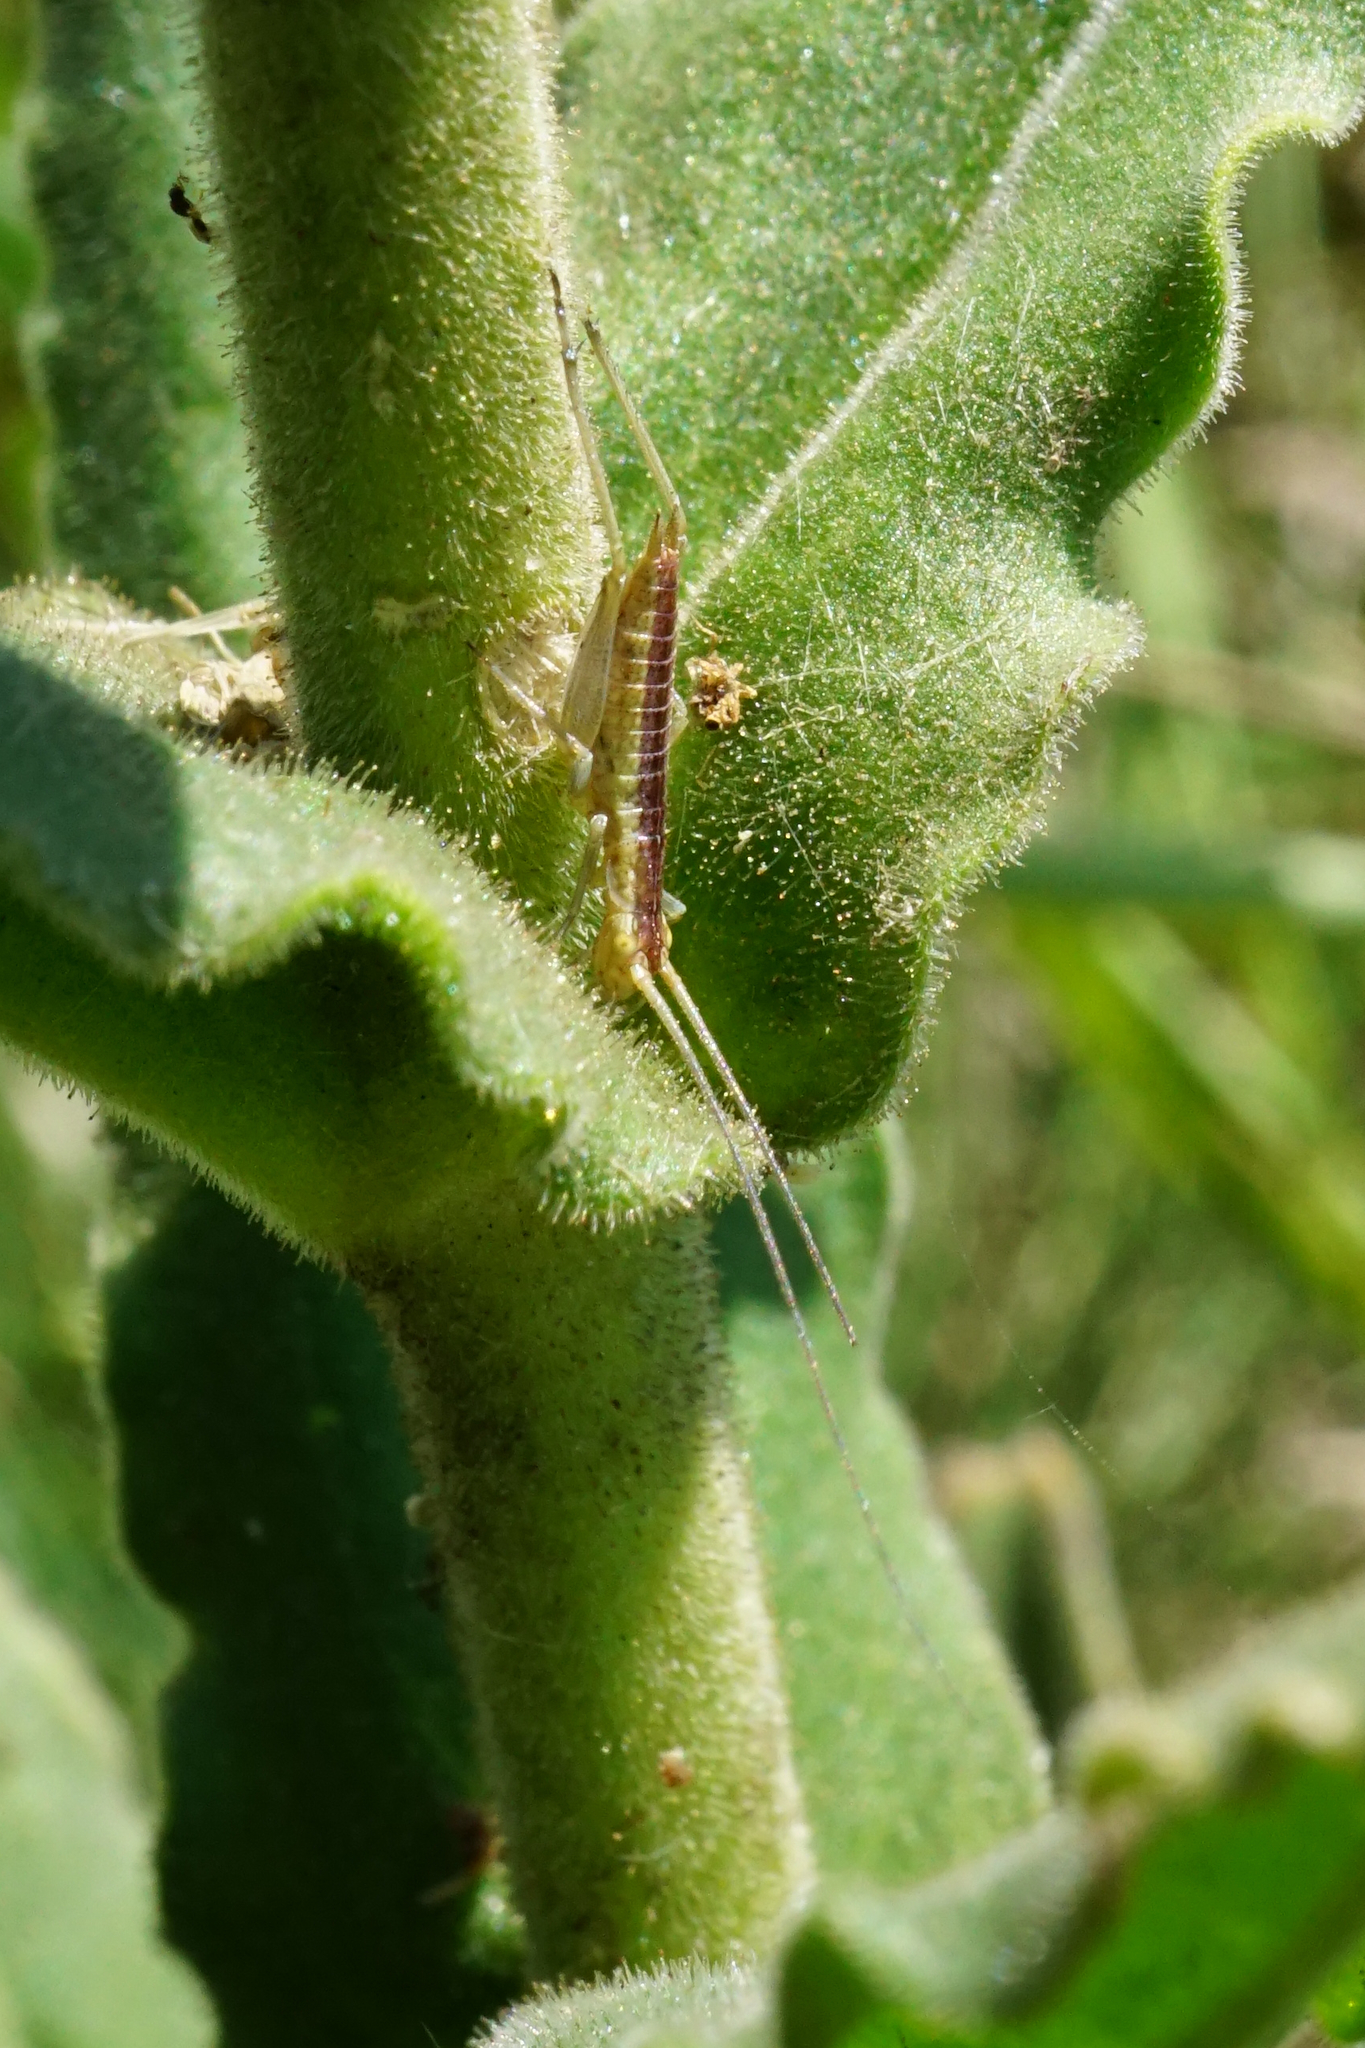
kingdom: Animalia
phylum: Arthropoda
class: Insecta
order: Orthoptera
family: Gryllidae
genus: Oecanthus
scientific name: Oecanthus pellucens
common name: Tree-cricket
